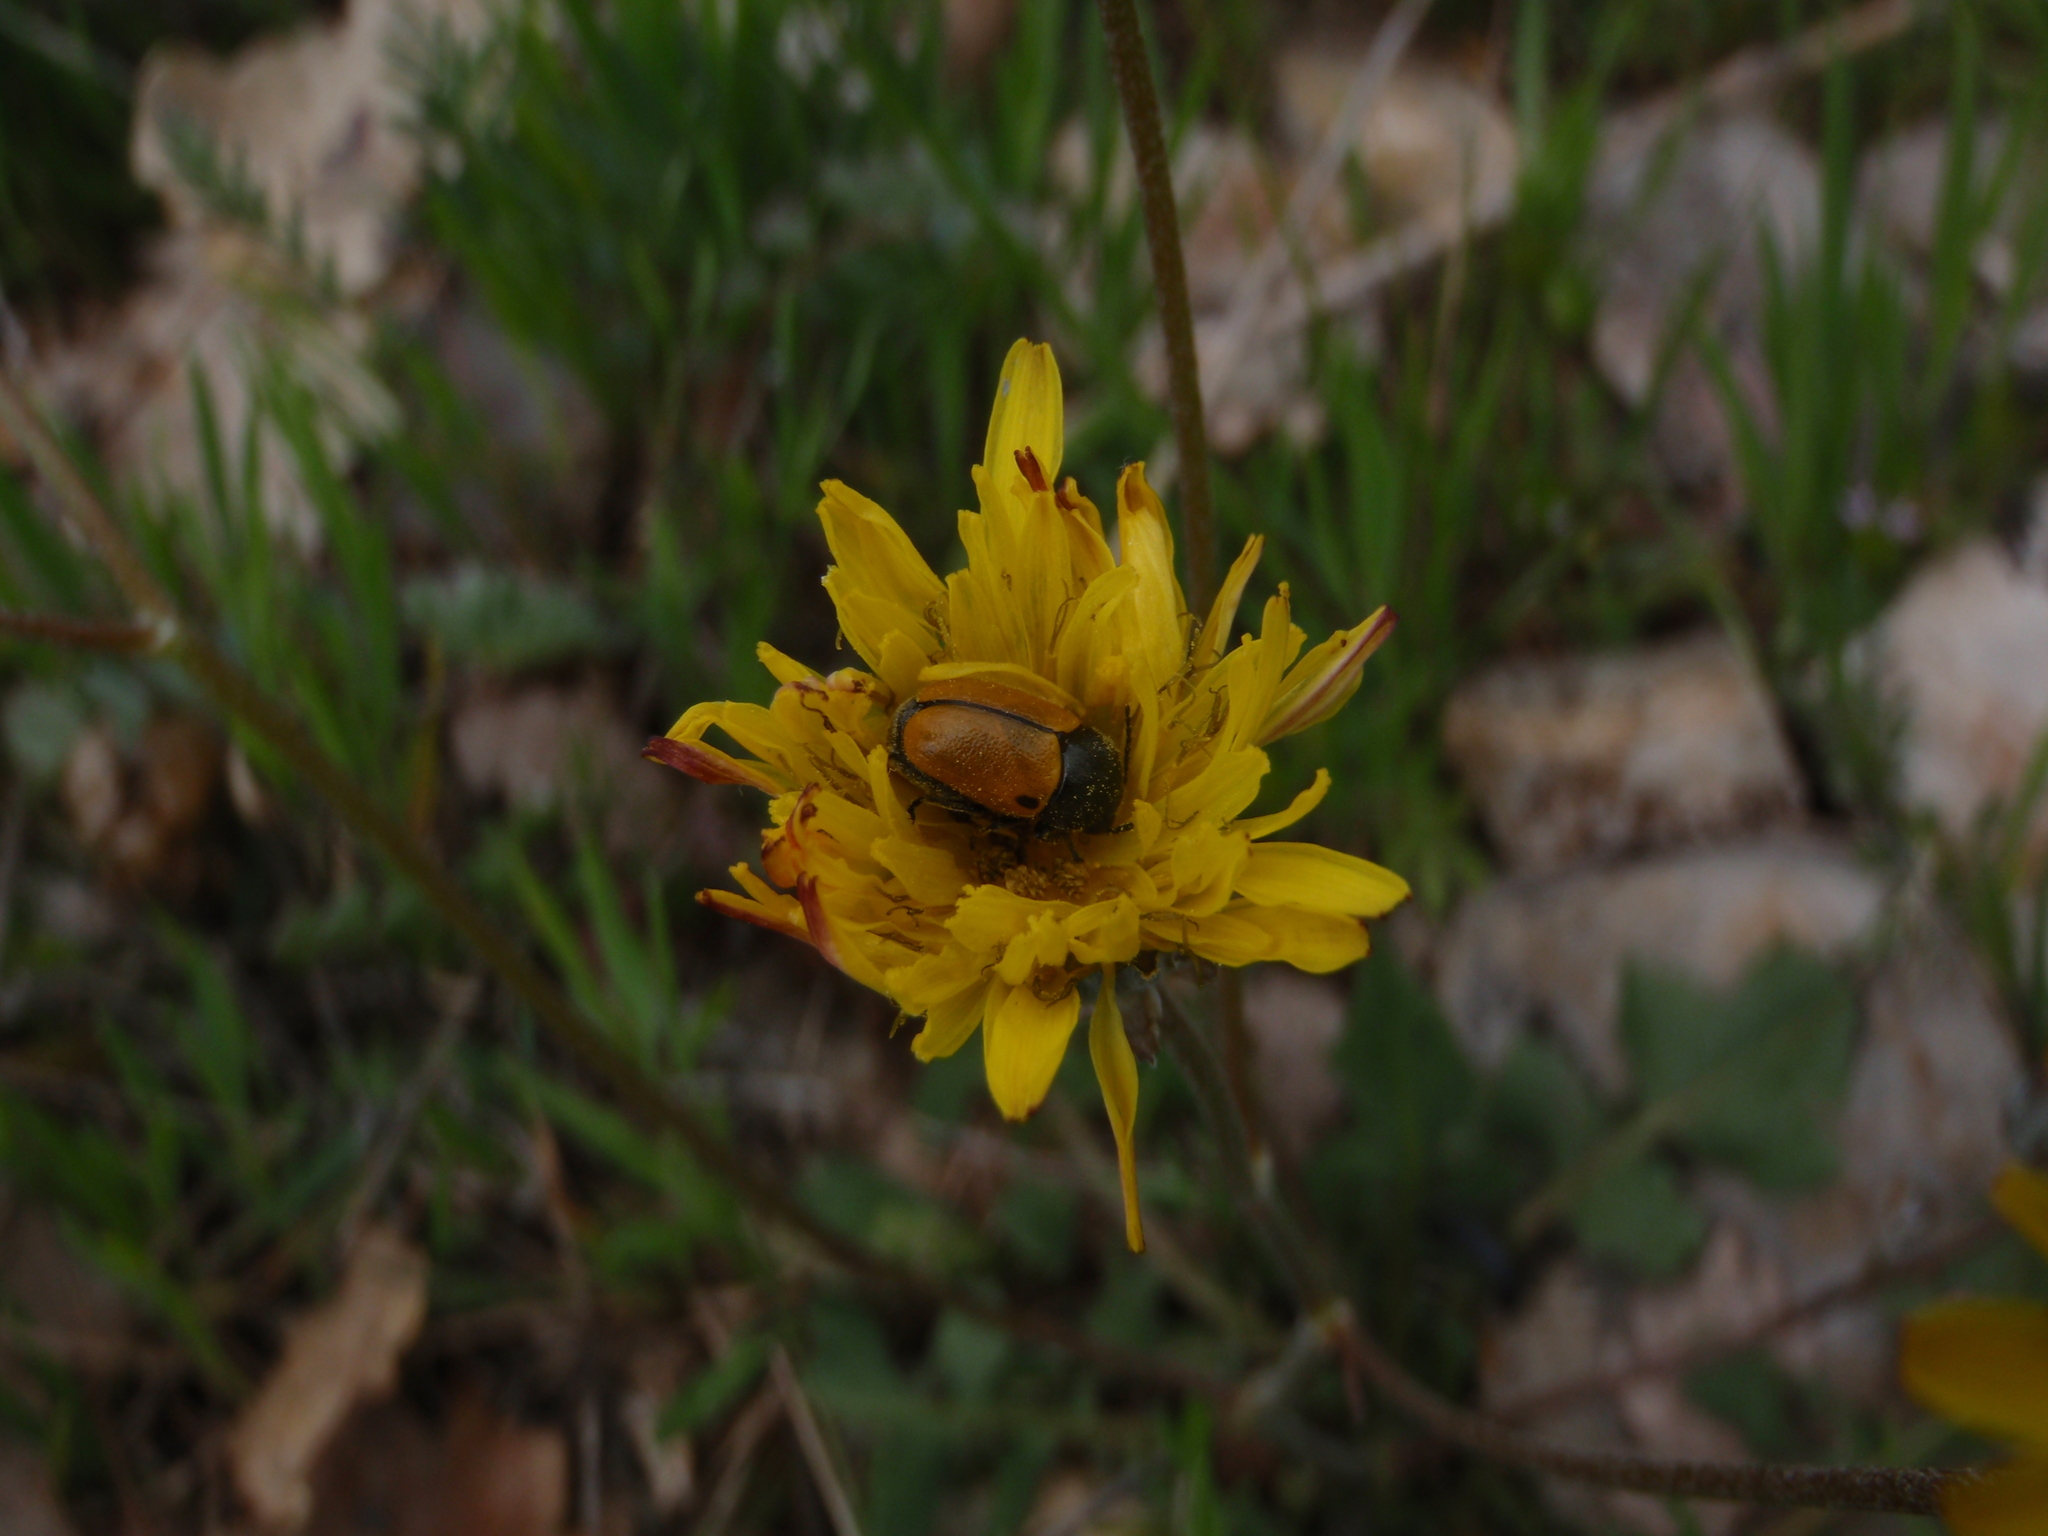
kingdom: Animalia
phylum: Arthropoda
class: Insecta
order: Coleoptera
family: Chrysomelidae
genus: Cryptocephalus
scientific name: Cryptocephalus rugicollis
